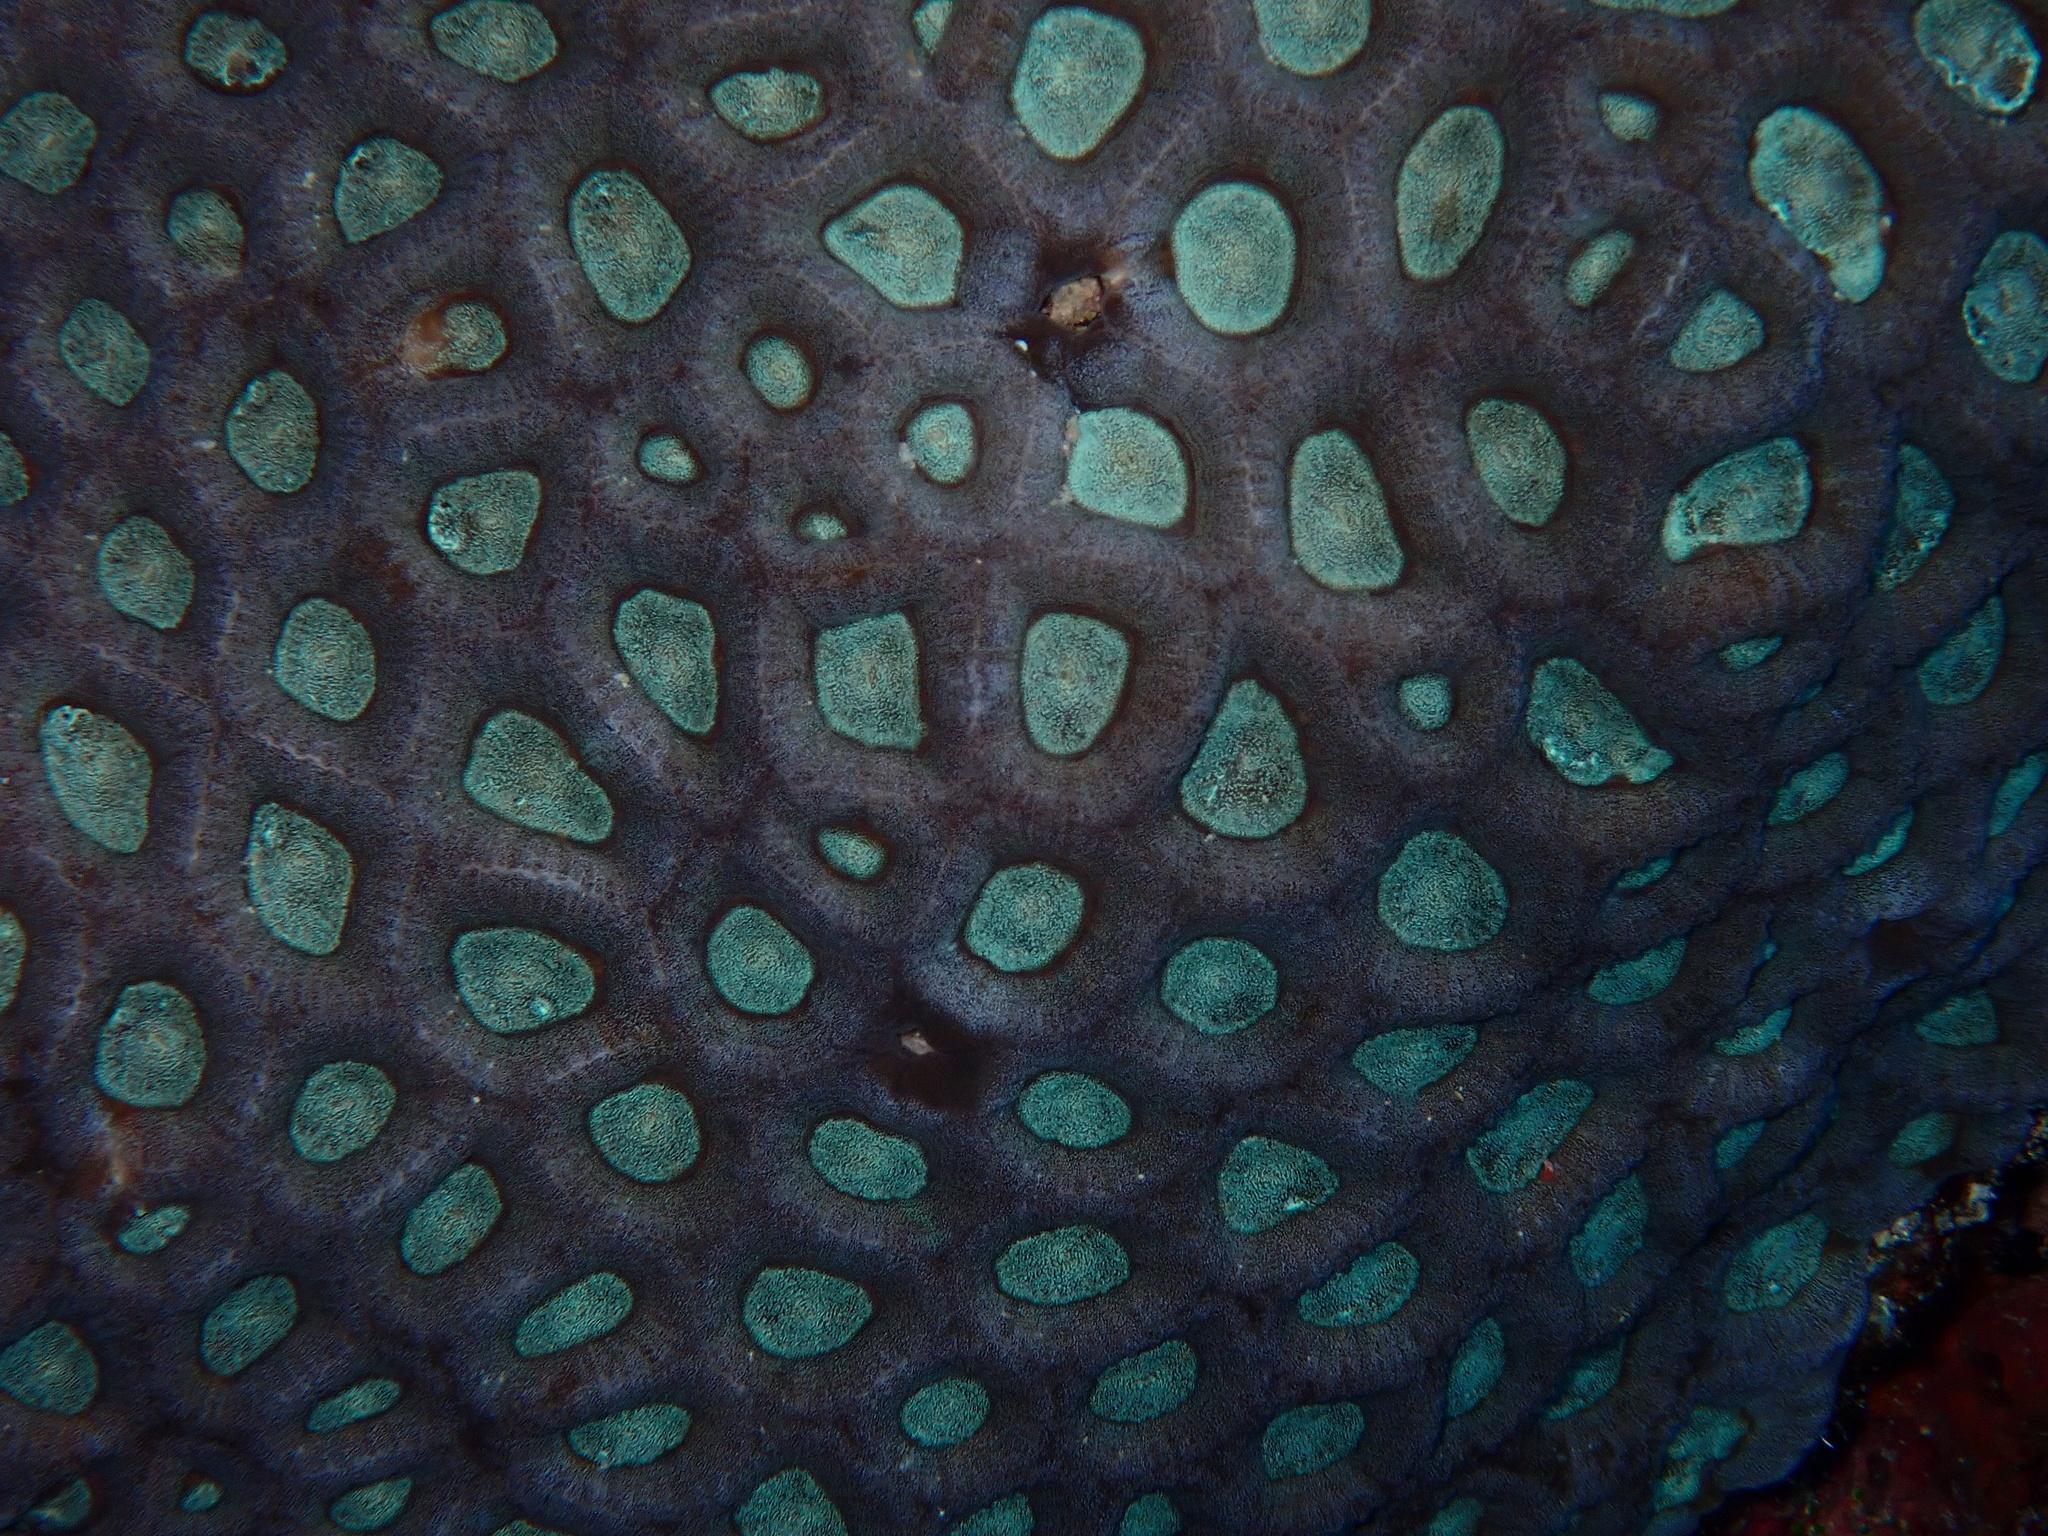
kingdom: Animalia
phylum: Cnidaria
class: Anthozoa
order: Scleractinia
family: Merulinidae
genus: Favites
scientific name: Favites vasta
